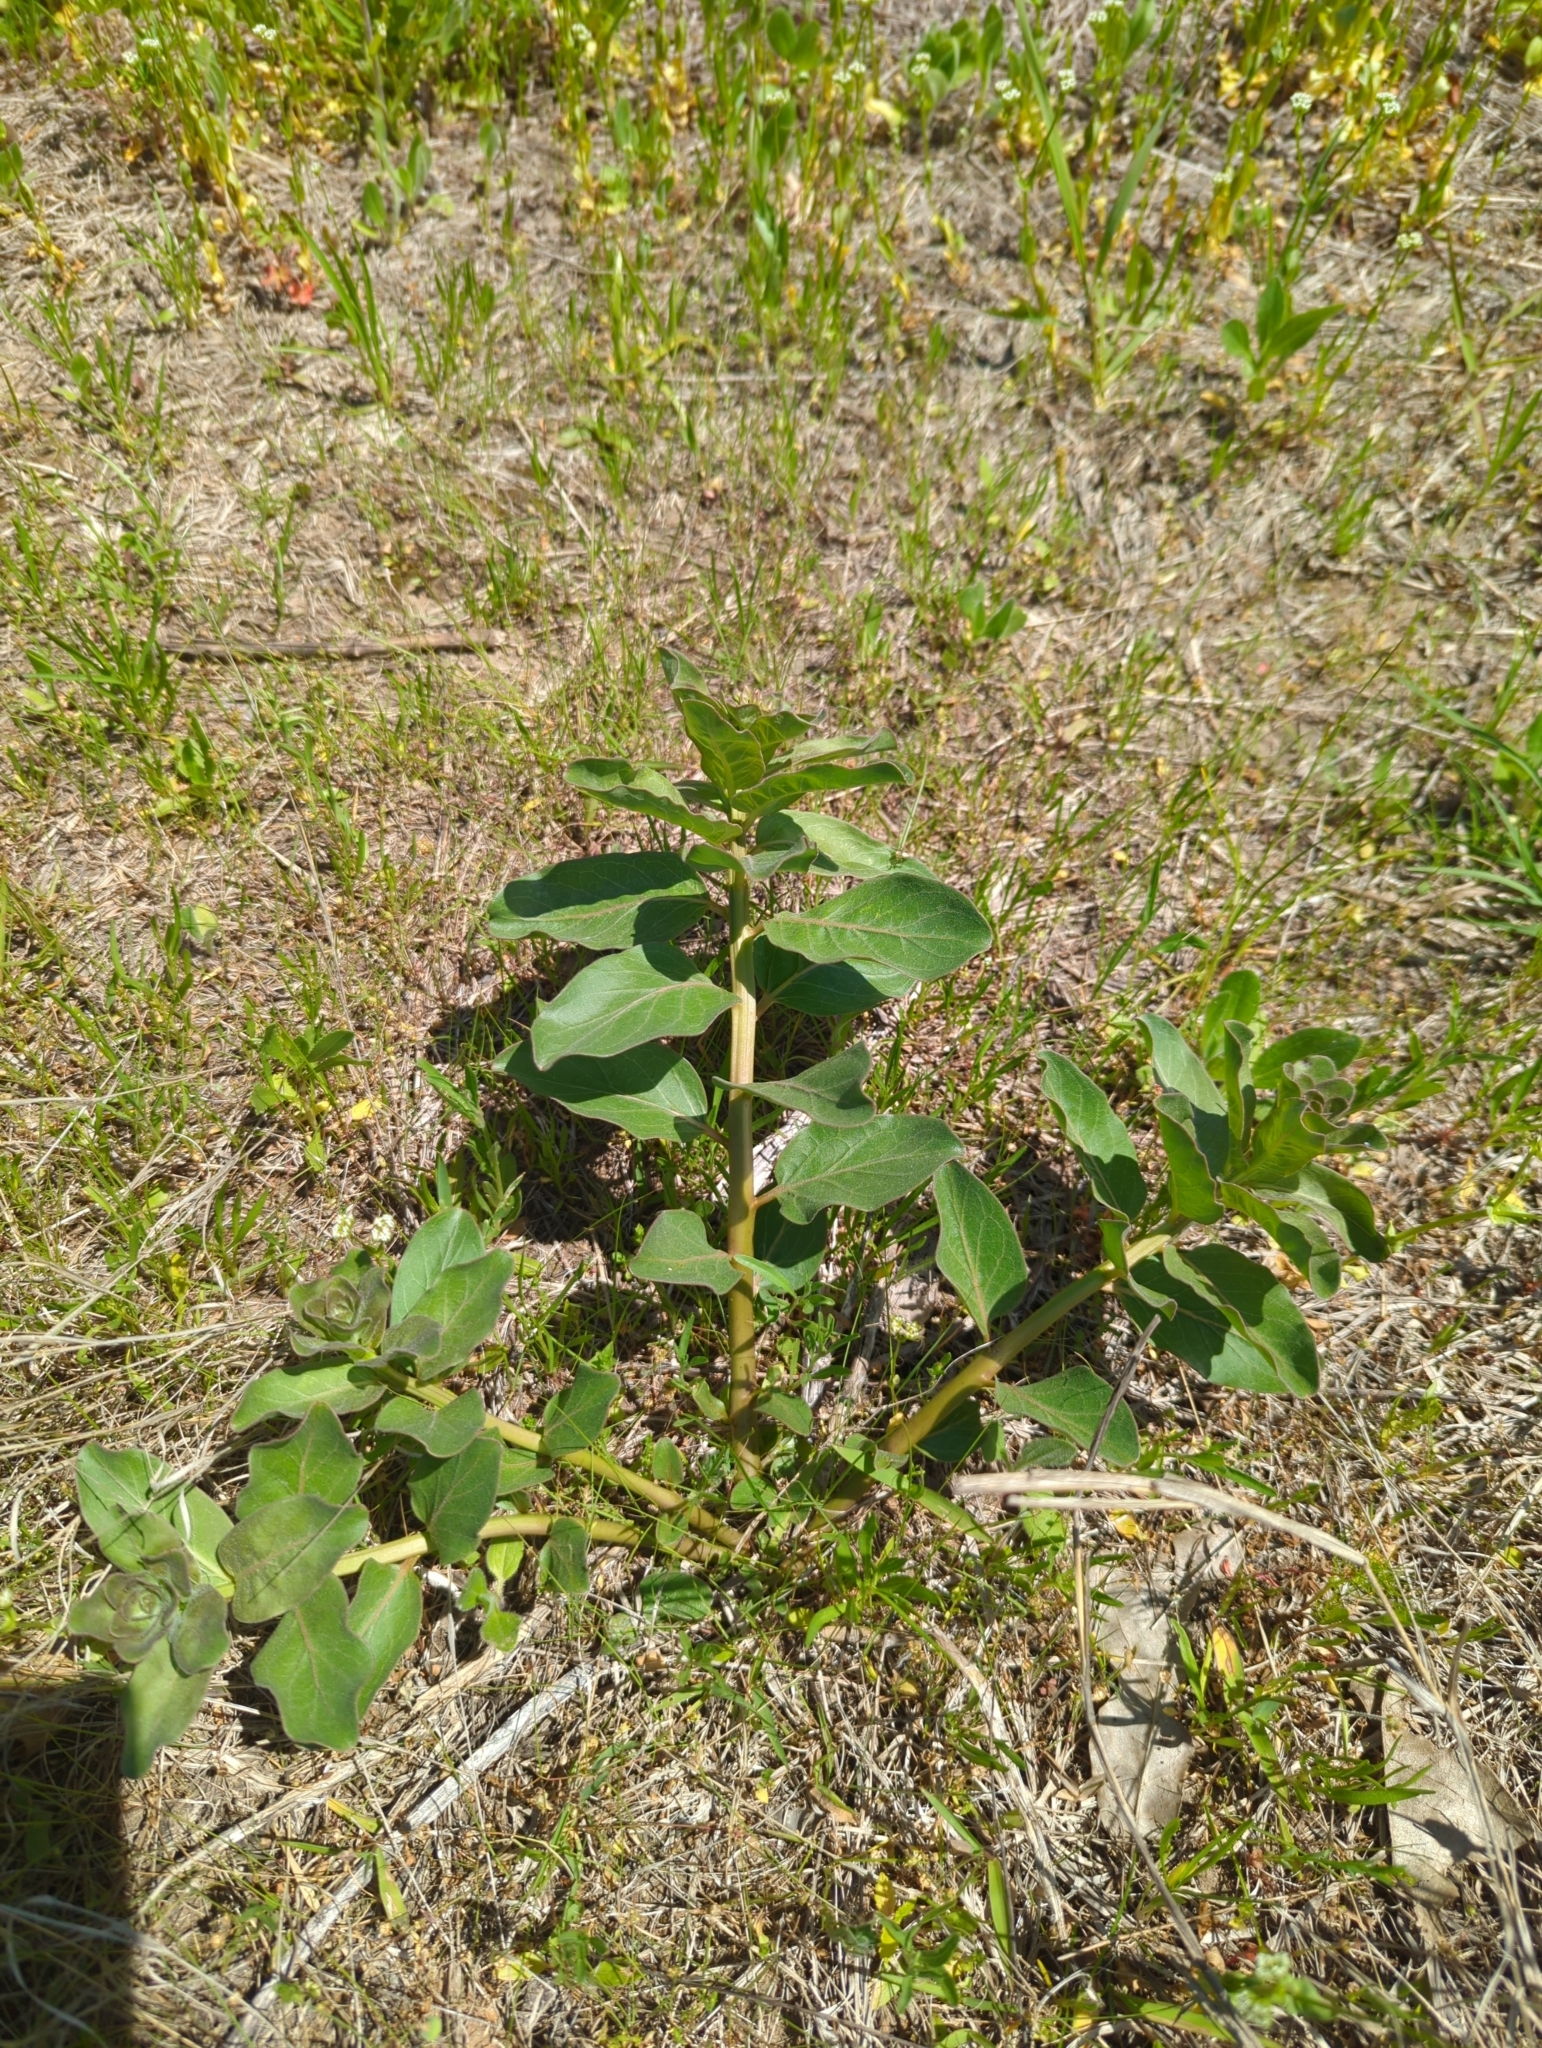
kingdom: Plantae
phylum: Tracheophyta
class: Magnoliopsida
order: Gentianales
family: Apocynaceae
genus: Asclepias
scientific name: Asclepias viridis
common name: Antelope-horns
